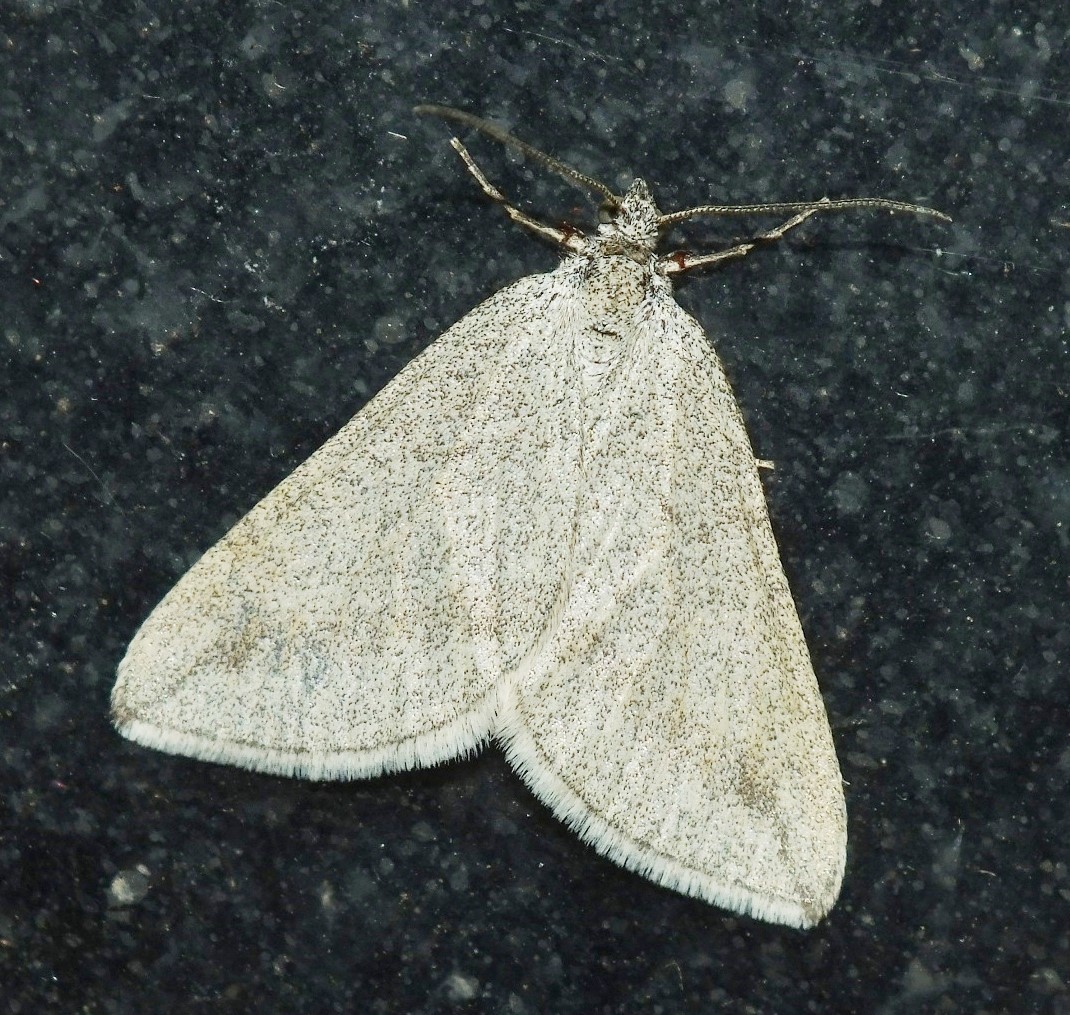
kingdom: Animalia
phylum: Arthropoda
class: Insecta
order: Lepidoptera
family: Geometridae
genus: Lithostege
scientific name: Lithostege griseata
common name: Grey carpet
